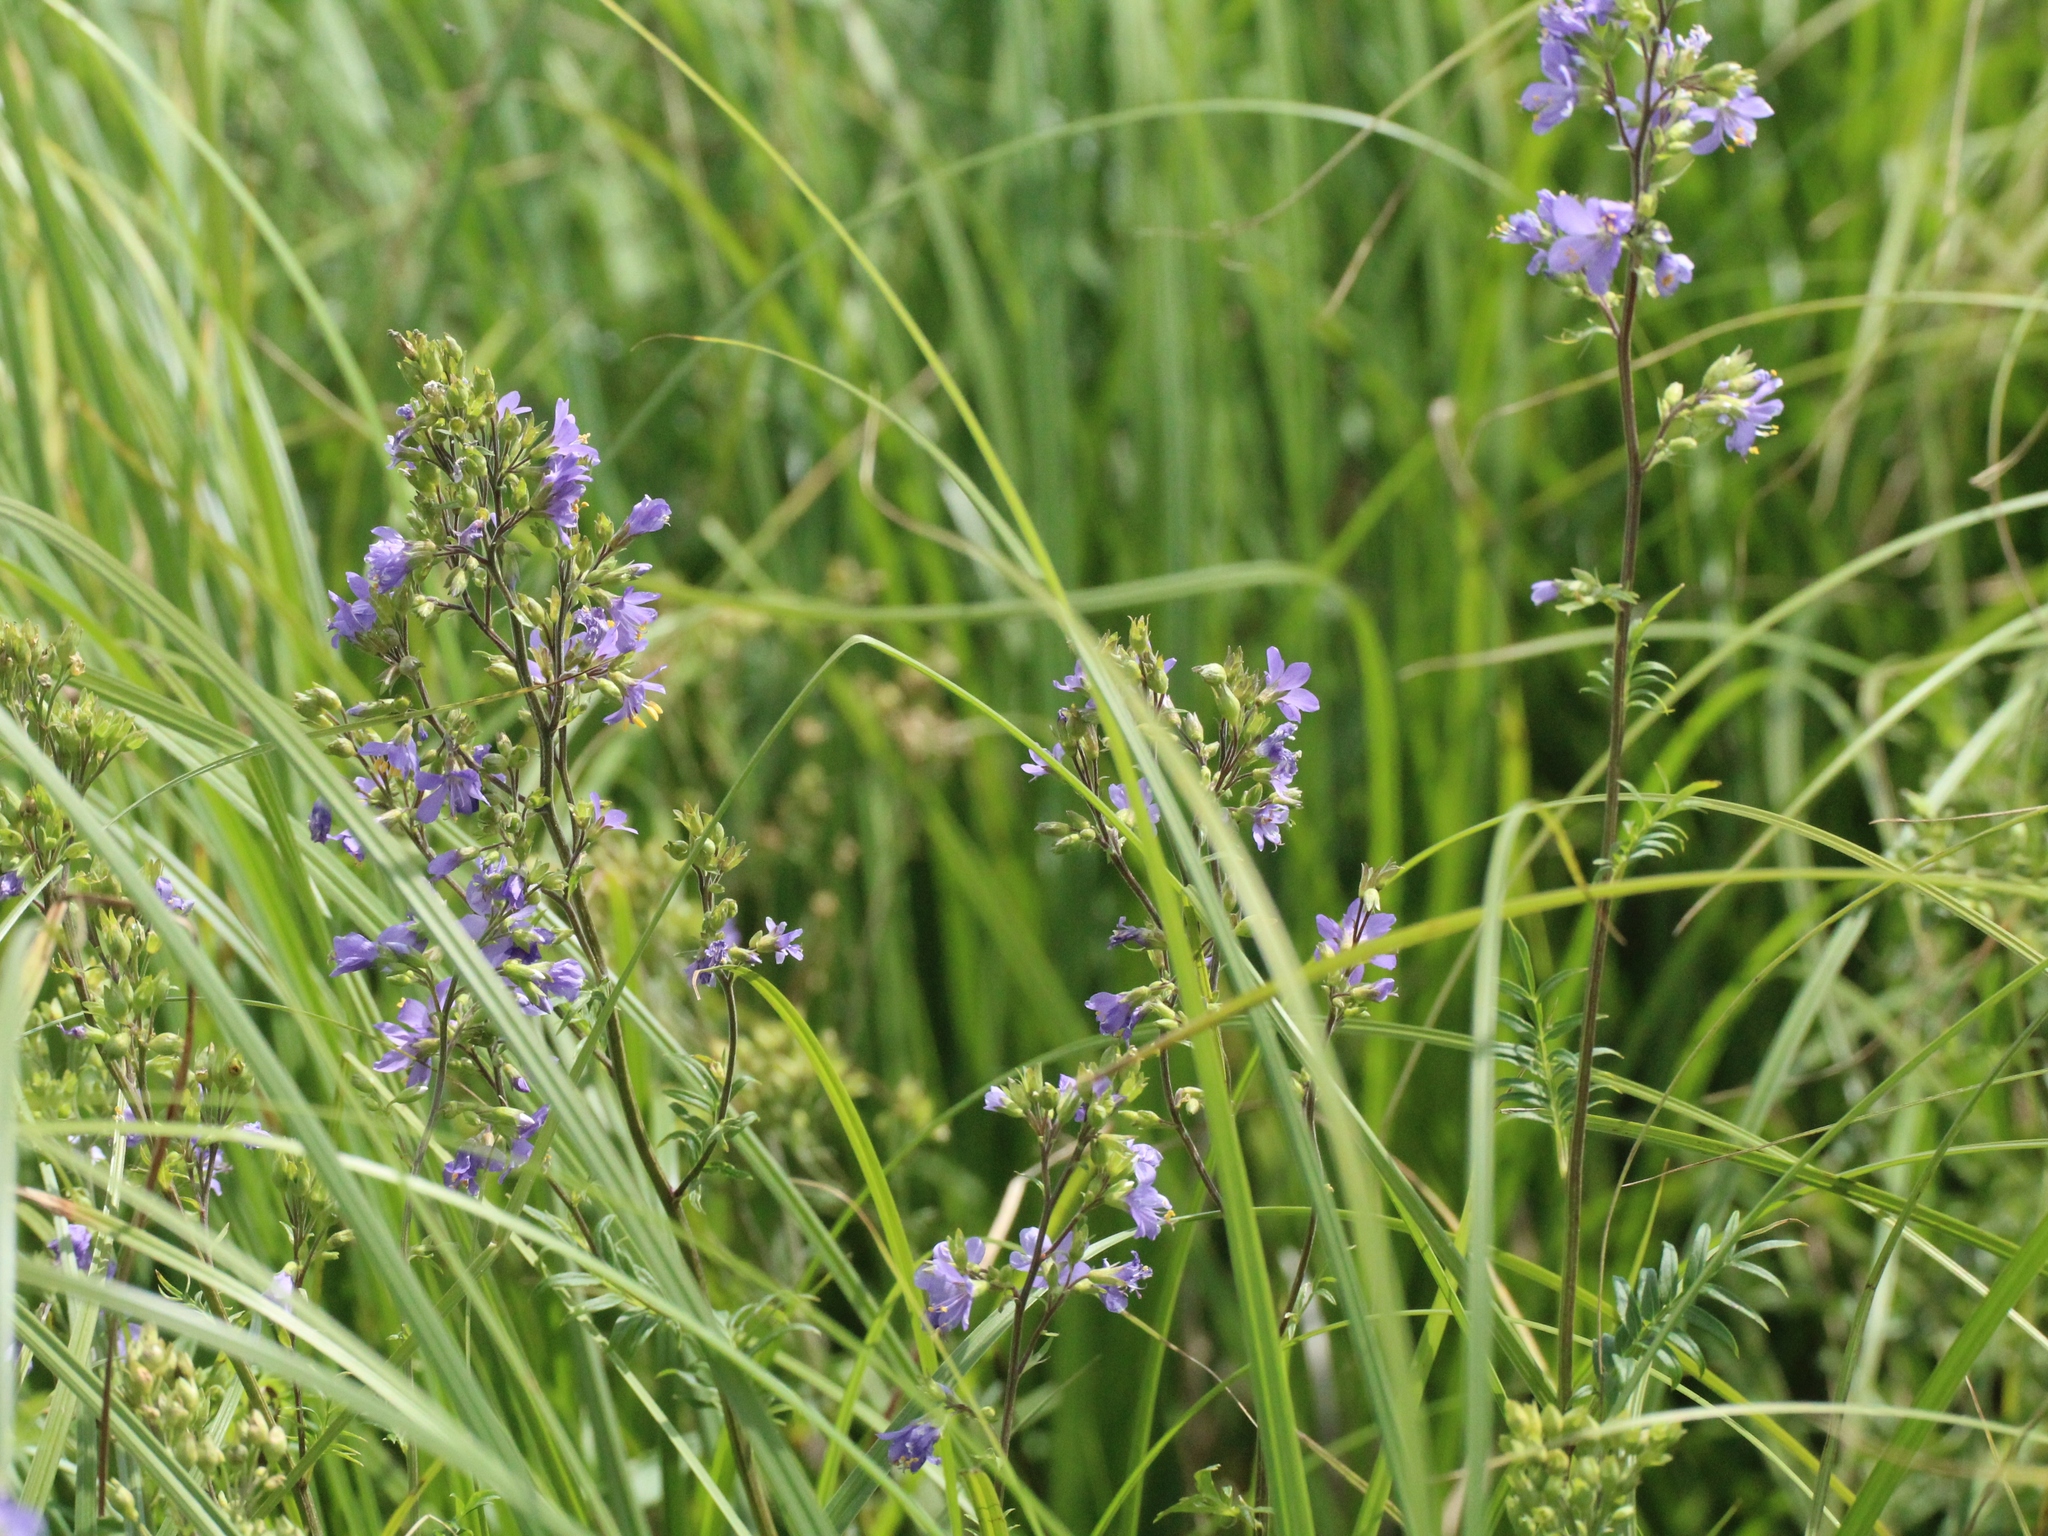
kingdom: Plantae
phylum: Tracheophyta
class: Magnoliopsida
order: Ericales
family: Polemoniaceae
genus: Polemonium
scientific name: Polemonium caeruleum
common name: Jacob's-ladder
